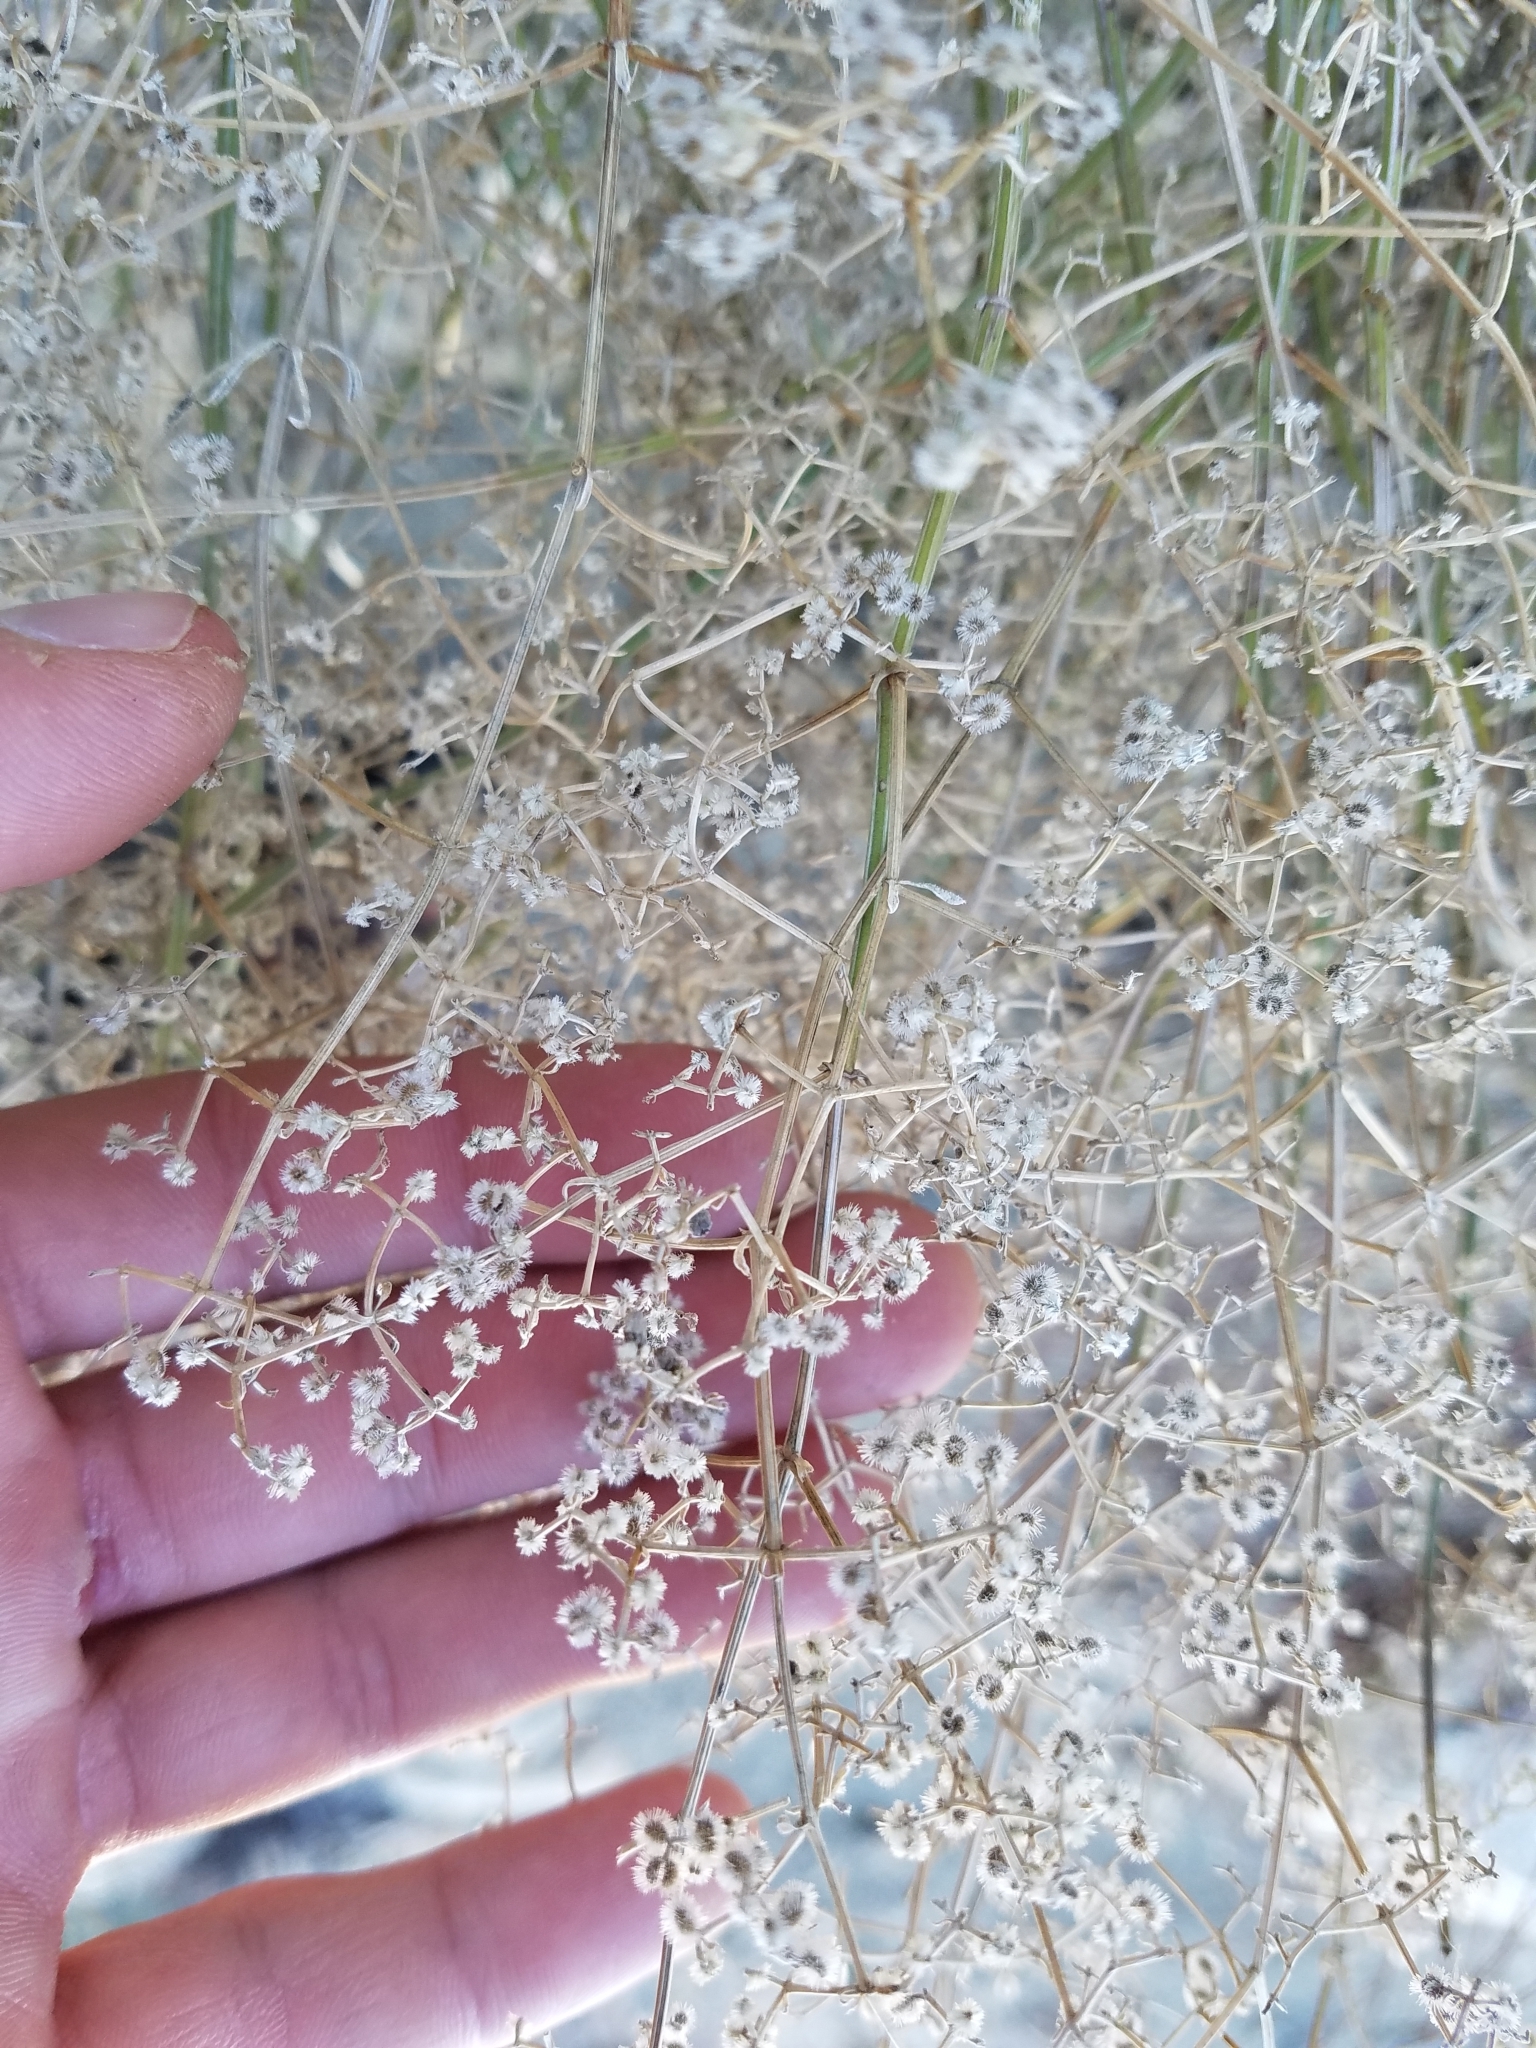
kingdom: Plantae
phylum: Tracheophyta
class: Magnoliopsida
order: Gentianales
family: Rubiaceae
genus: Galium
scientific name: Galium stellatum
